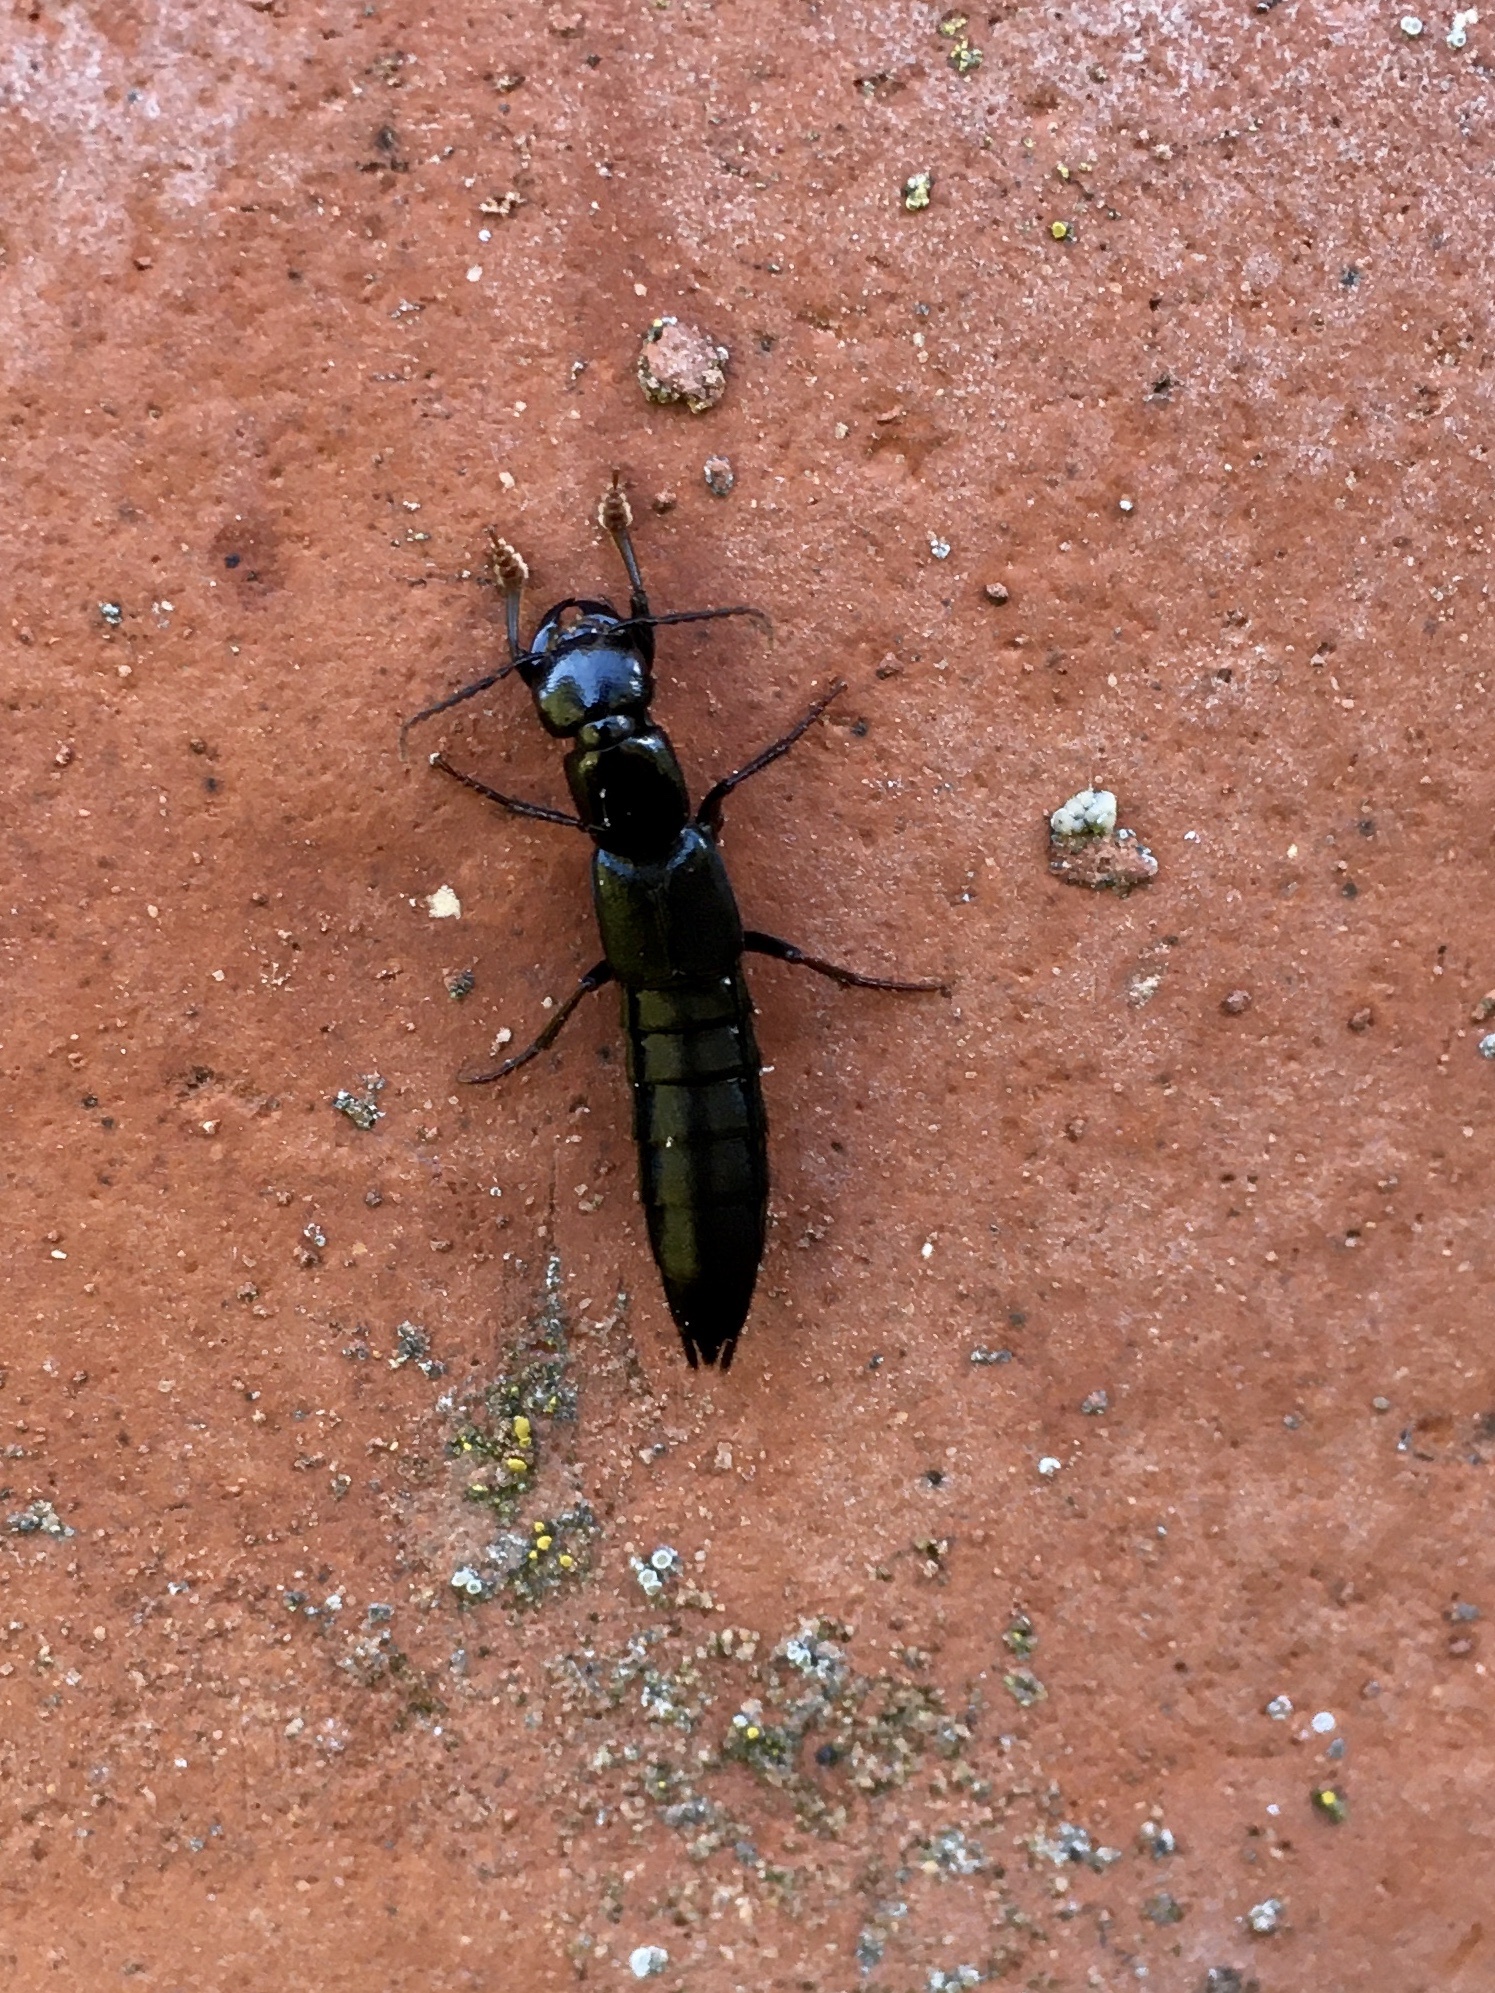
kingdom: Animalia
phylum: Arthropoda
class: Insecta
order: Coleoptera
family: Staphylinidae
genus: Tasgius
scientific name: Tasgius ater
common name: Staph beetle
